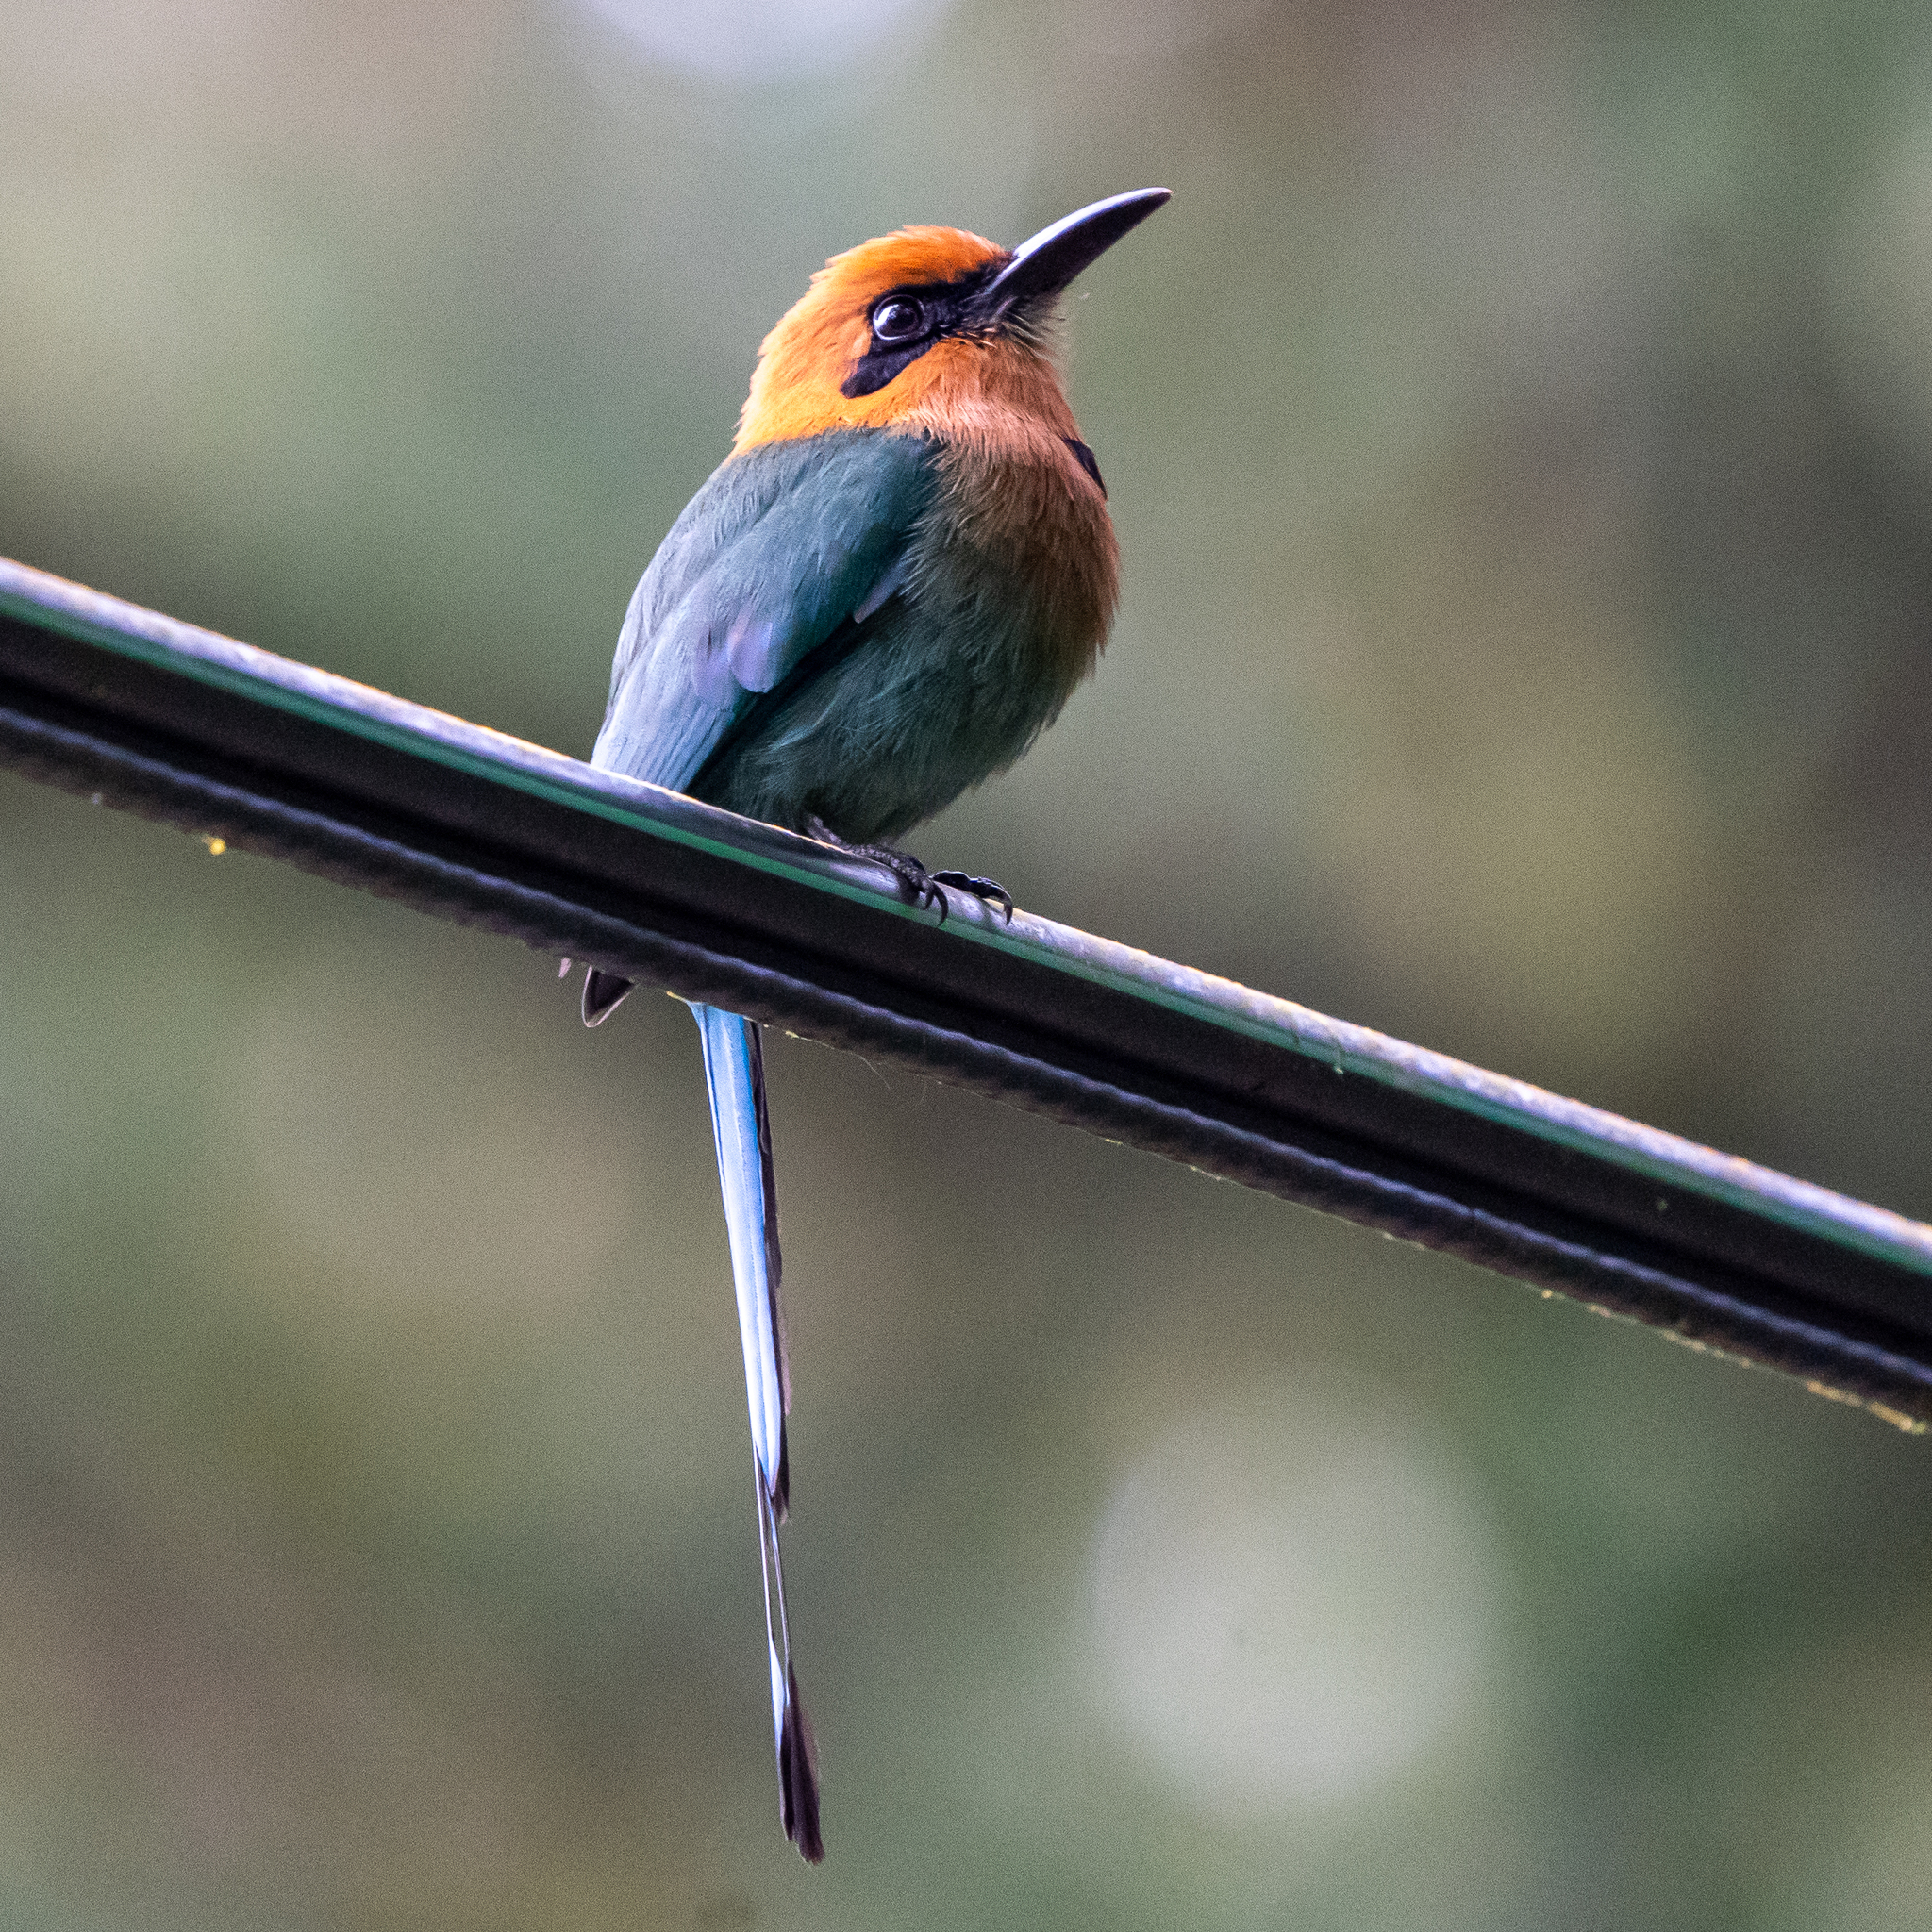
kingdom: Animalia
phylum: Chordata
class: Aves
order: Coraciiformes
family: Momotidae
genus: Electron
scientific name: Electron platyrhynchum
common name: Broad-billed motmot
